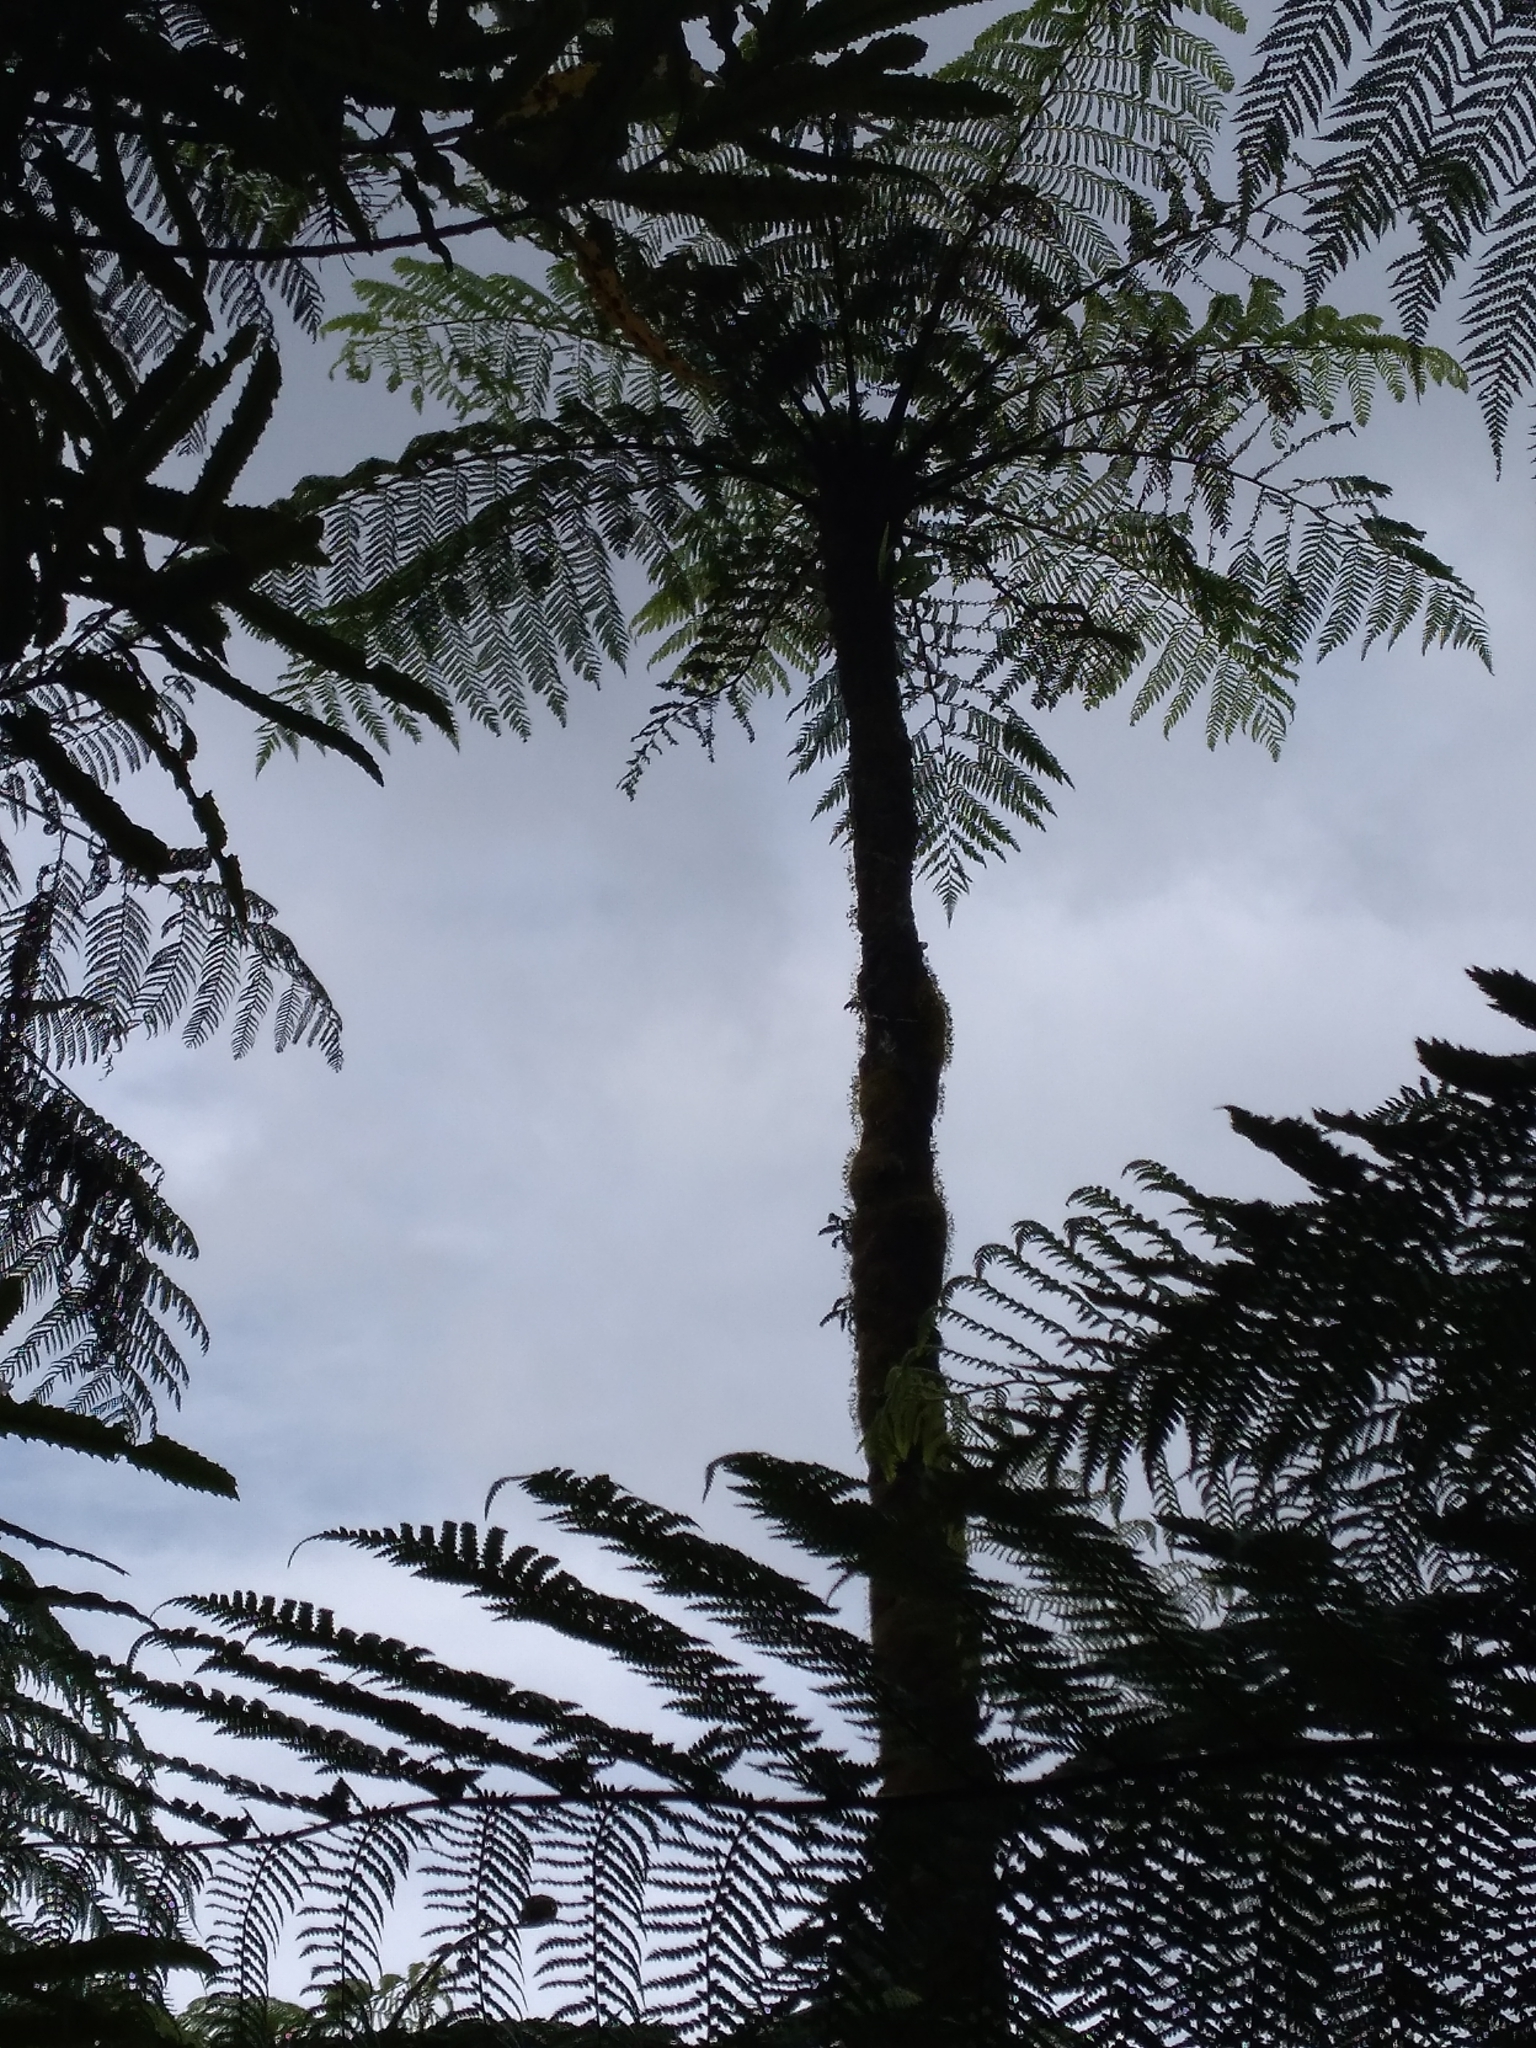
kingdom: Plantae
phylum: Tracheophyta
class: Polypodiopsida
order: Cyatheales
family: Cyatheaceae
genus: Cyathea
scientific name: Cyathea cunninghamii
